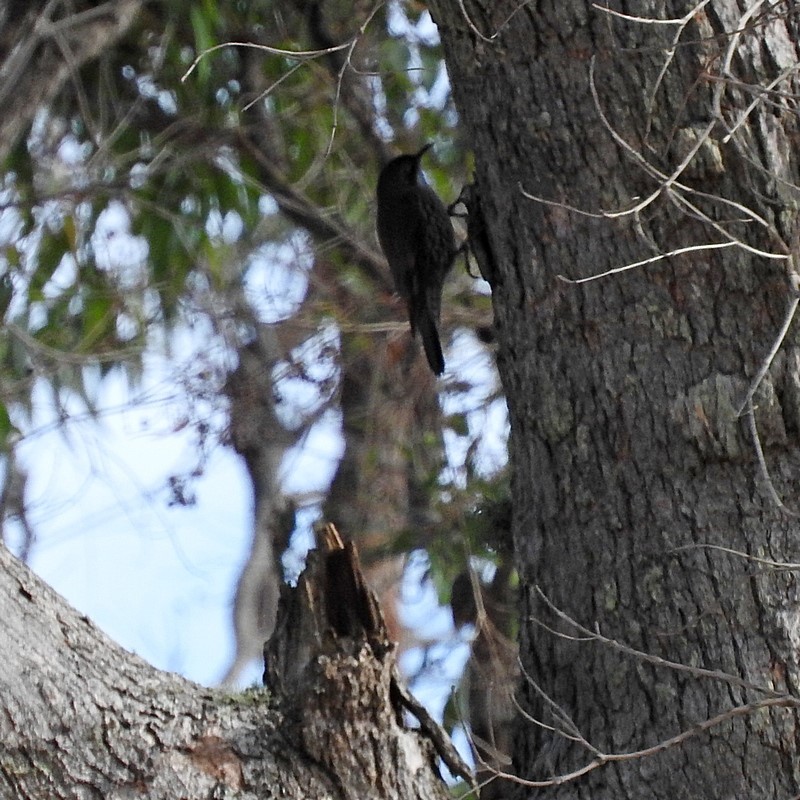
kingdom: Animalia
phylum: Chordata
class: Aves
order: Passeriformes
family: Climacteridae
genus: Cormobates
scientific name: Cormobates leucophaea
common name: White-throated treecreeper
